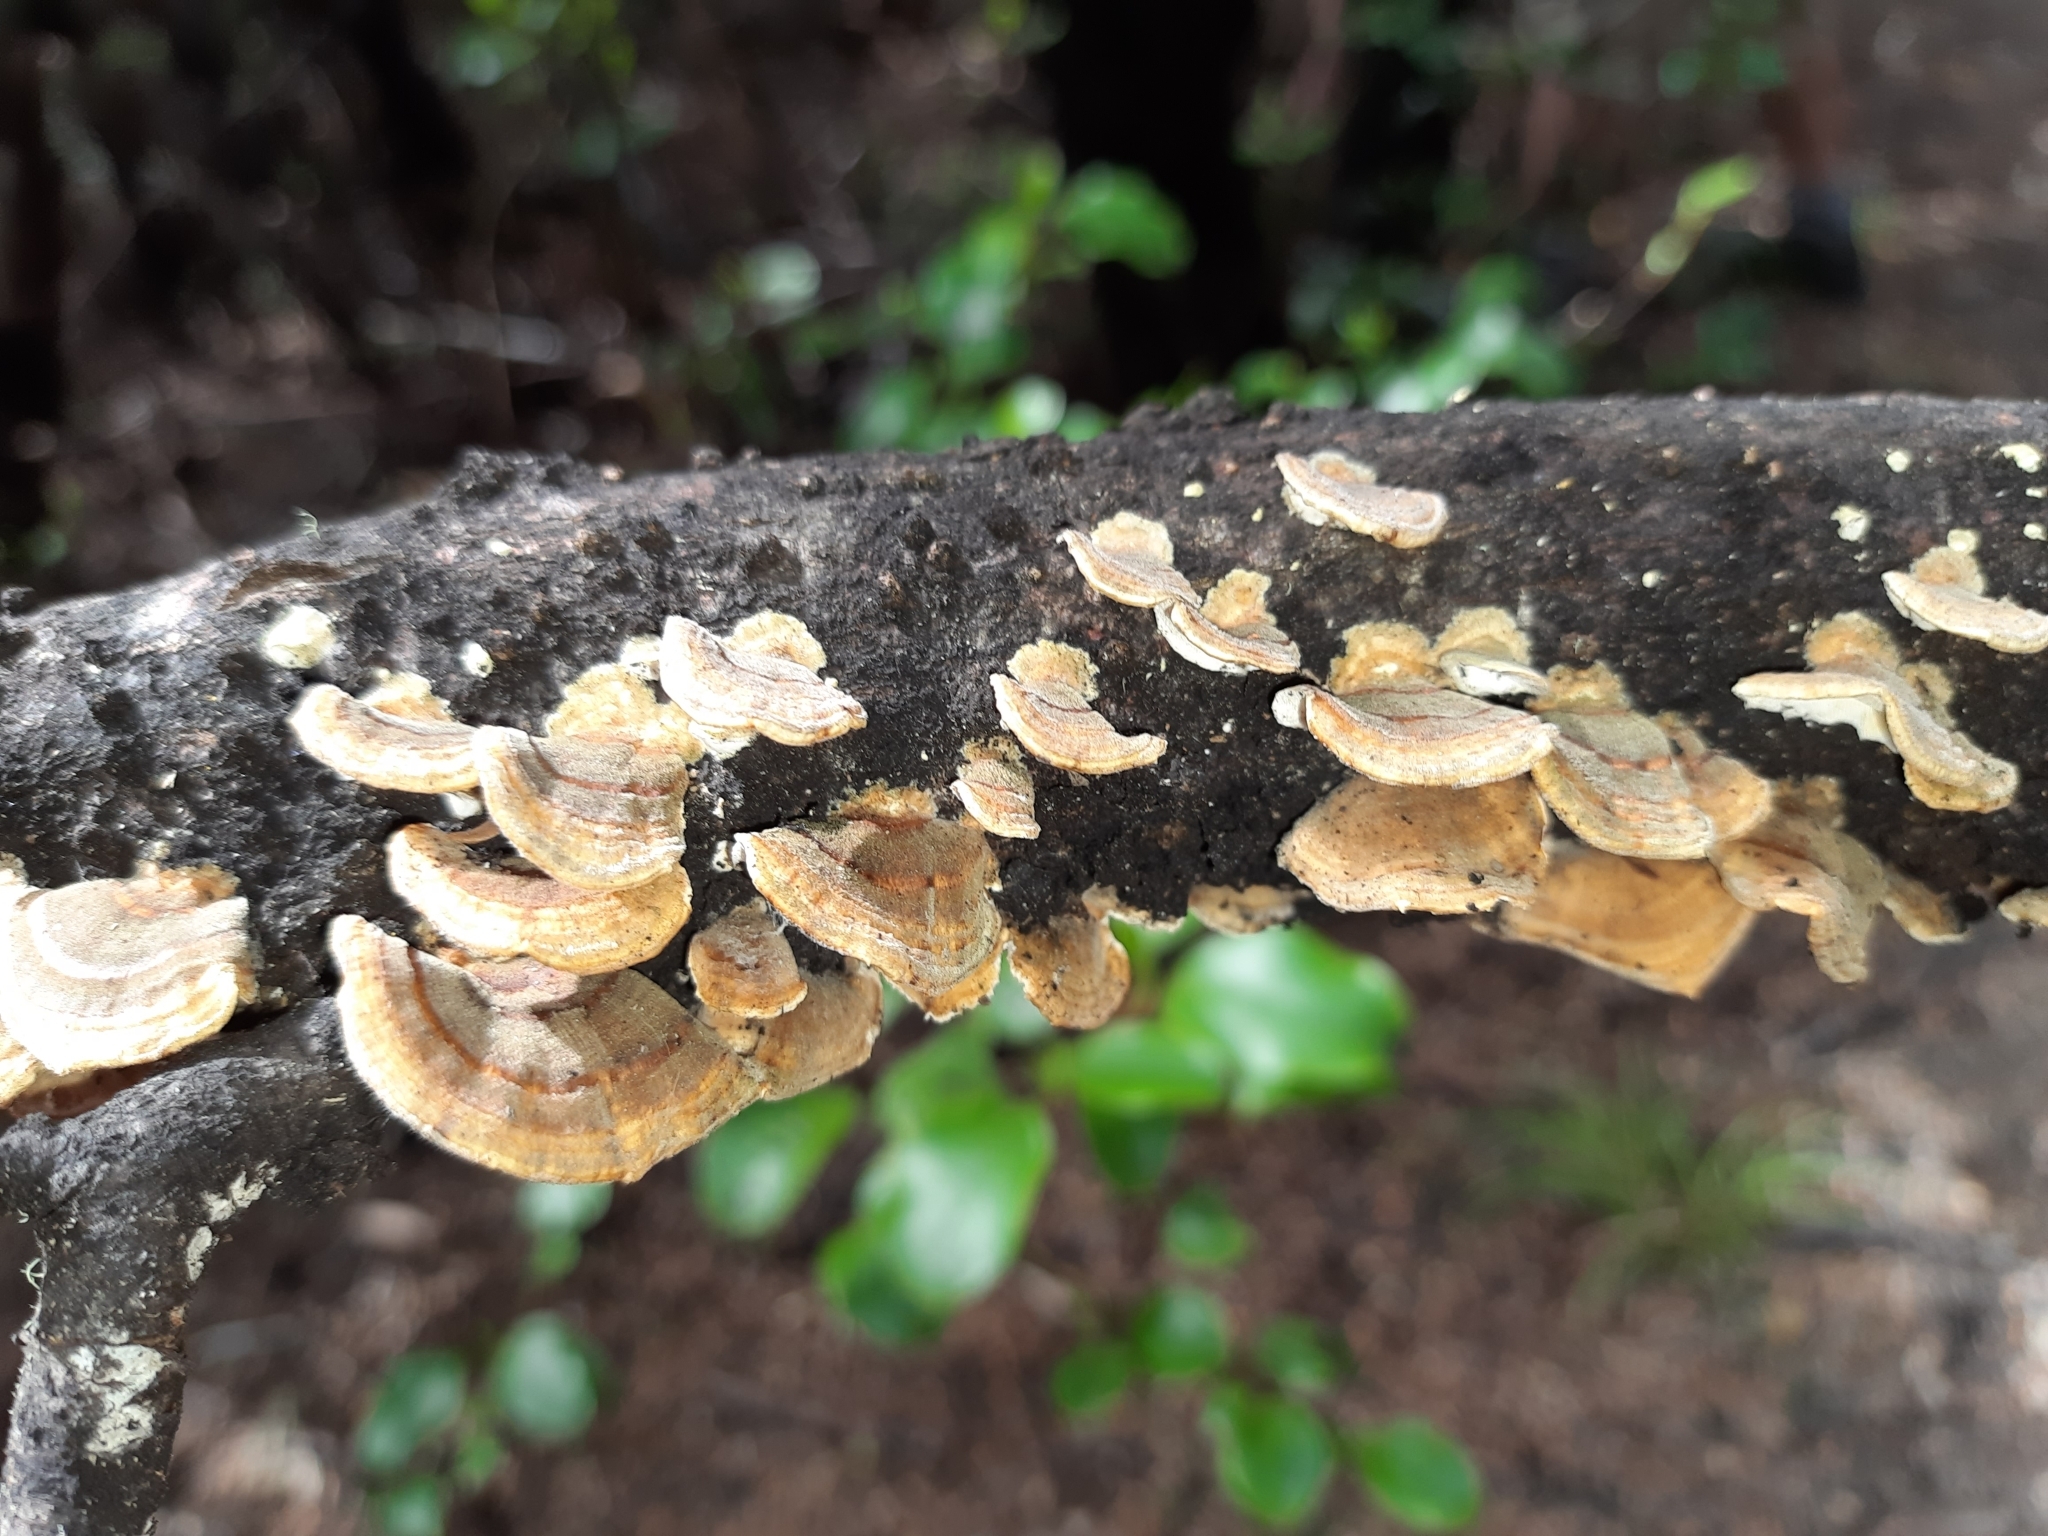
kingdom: Fungi
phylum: Basidiomycota
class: Agaricomycetes
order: Russulales
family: Stereaceae
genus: Stereum
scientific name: Stereum versicolor
